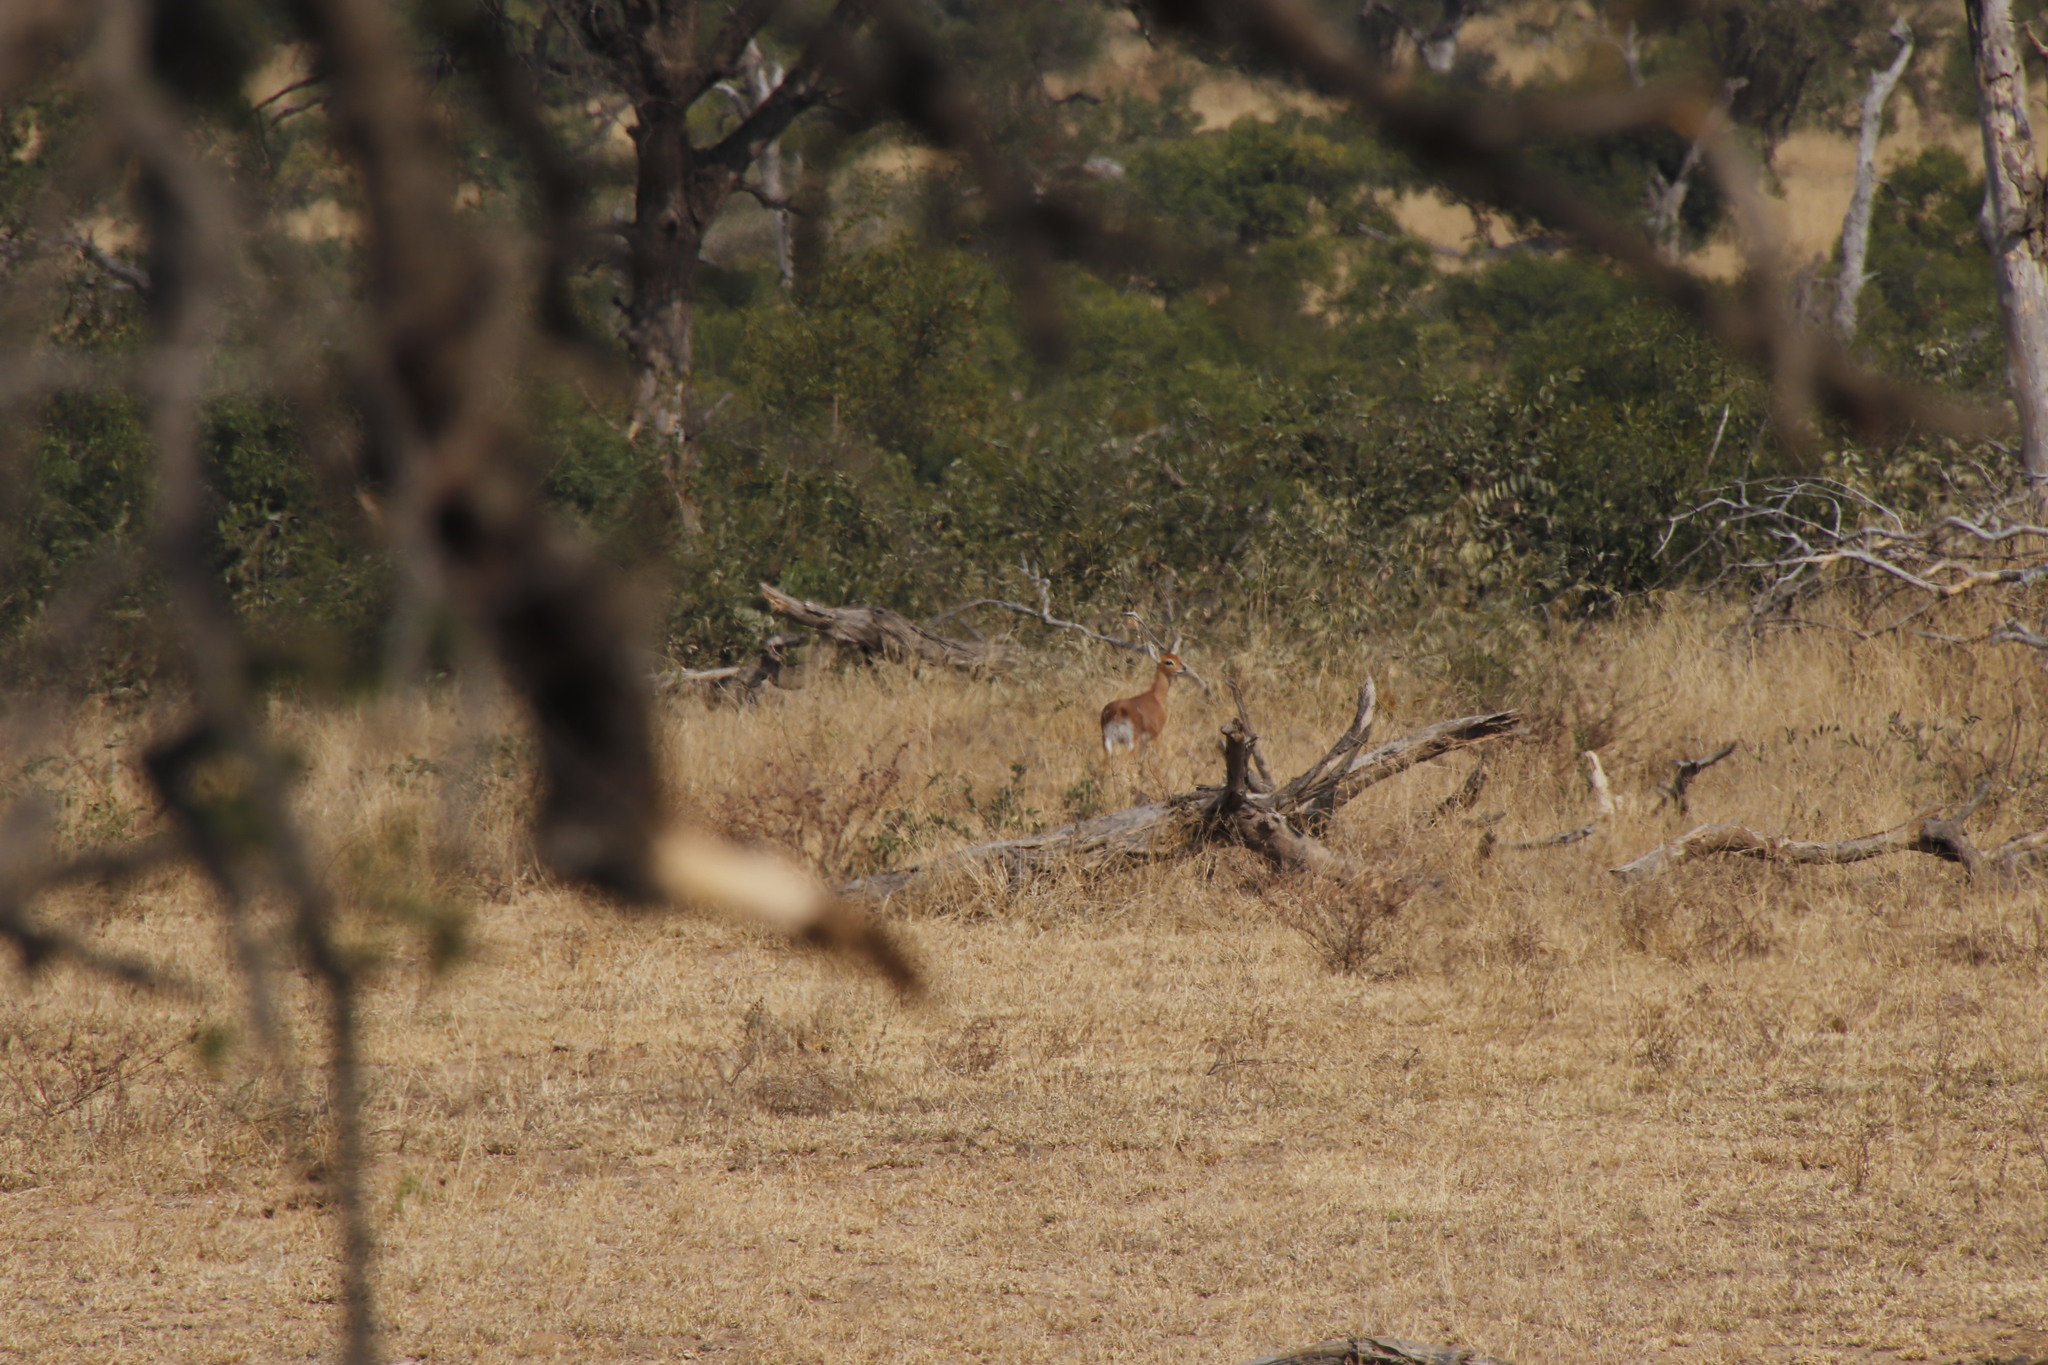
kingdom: Animalia
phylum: Chordata
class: Mammalia
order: Artiodactyla
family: Bovidae
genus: Raphicerus
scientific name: Raphicerus campestris
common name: Steenbok
